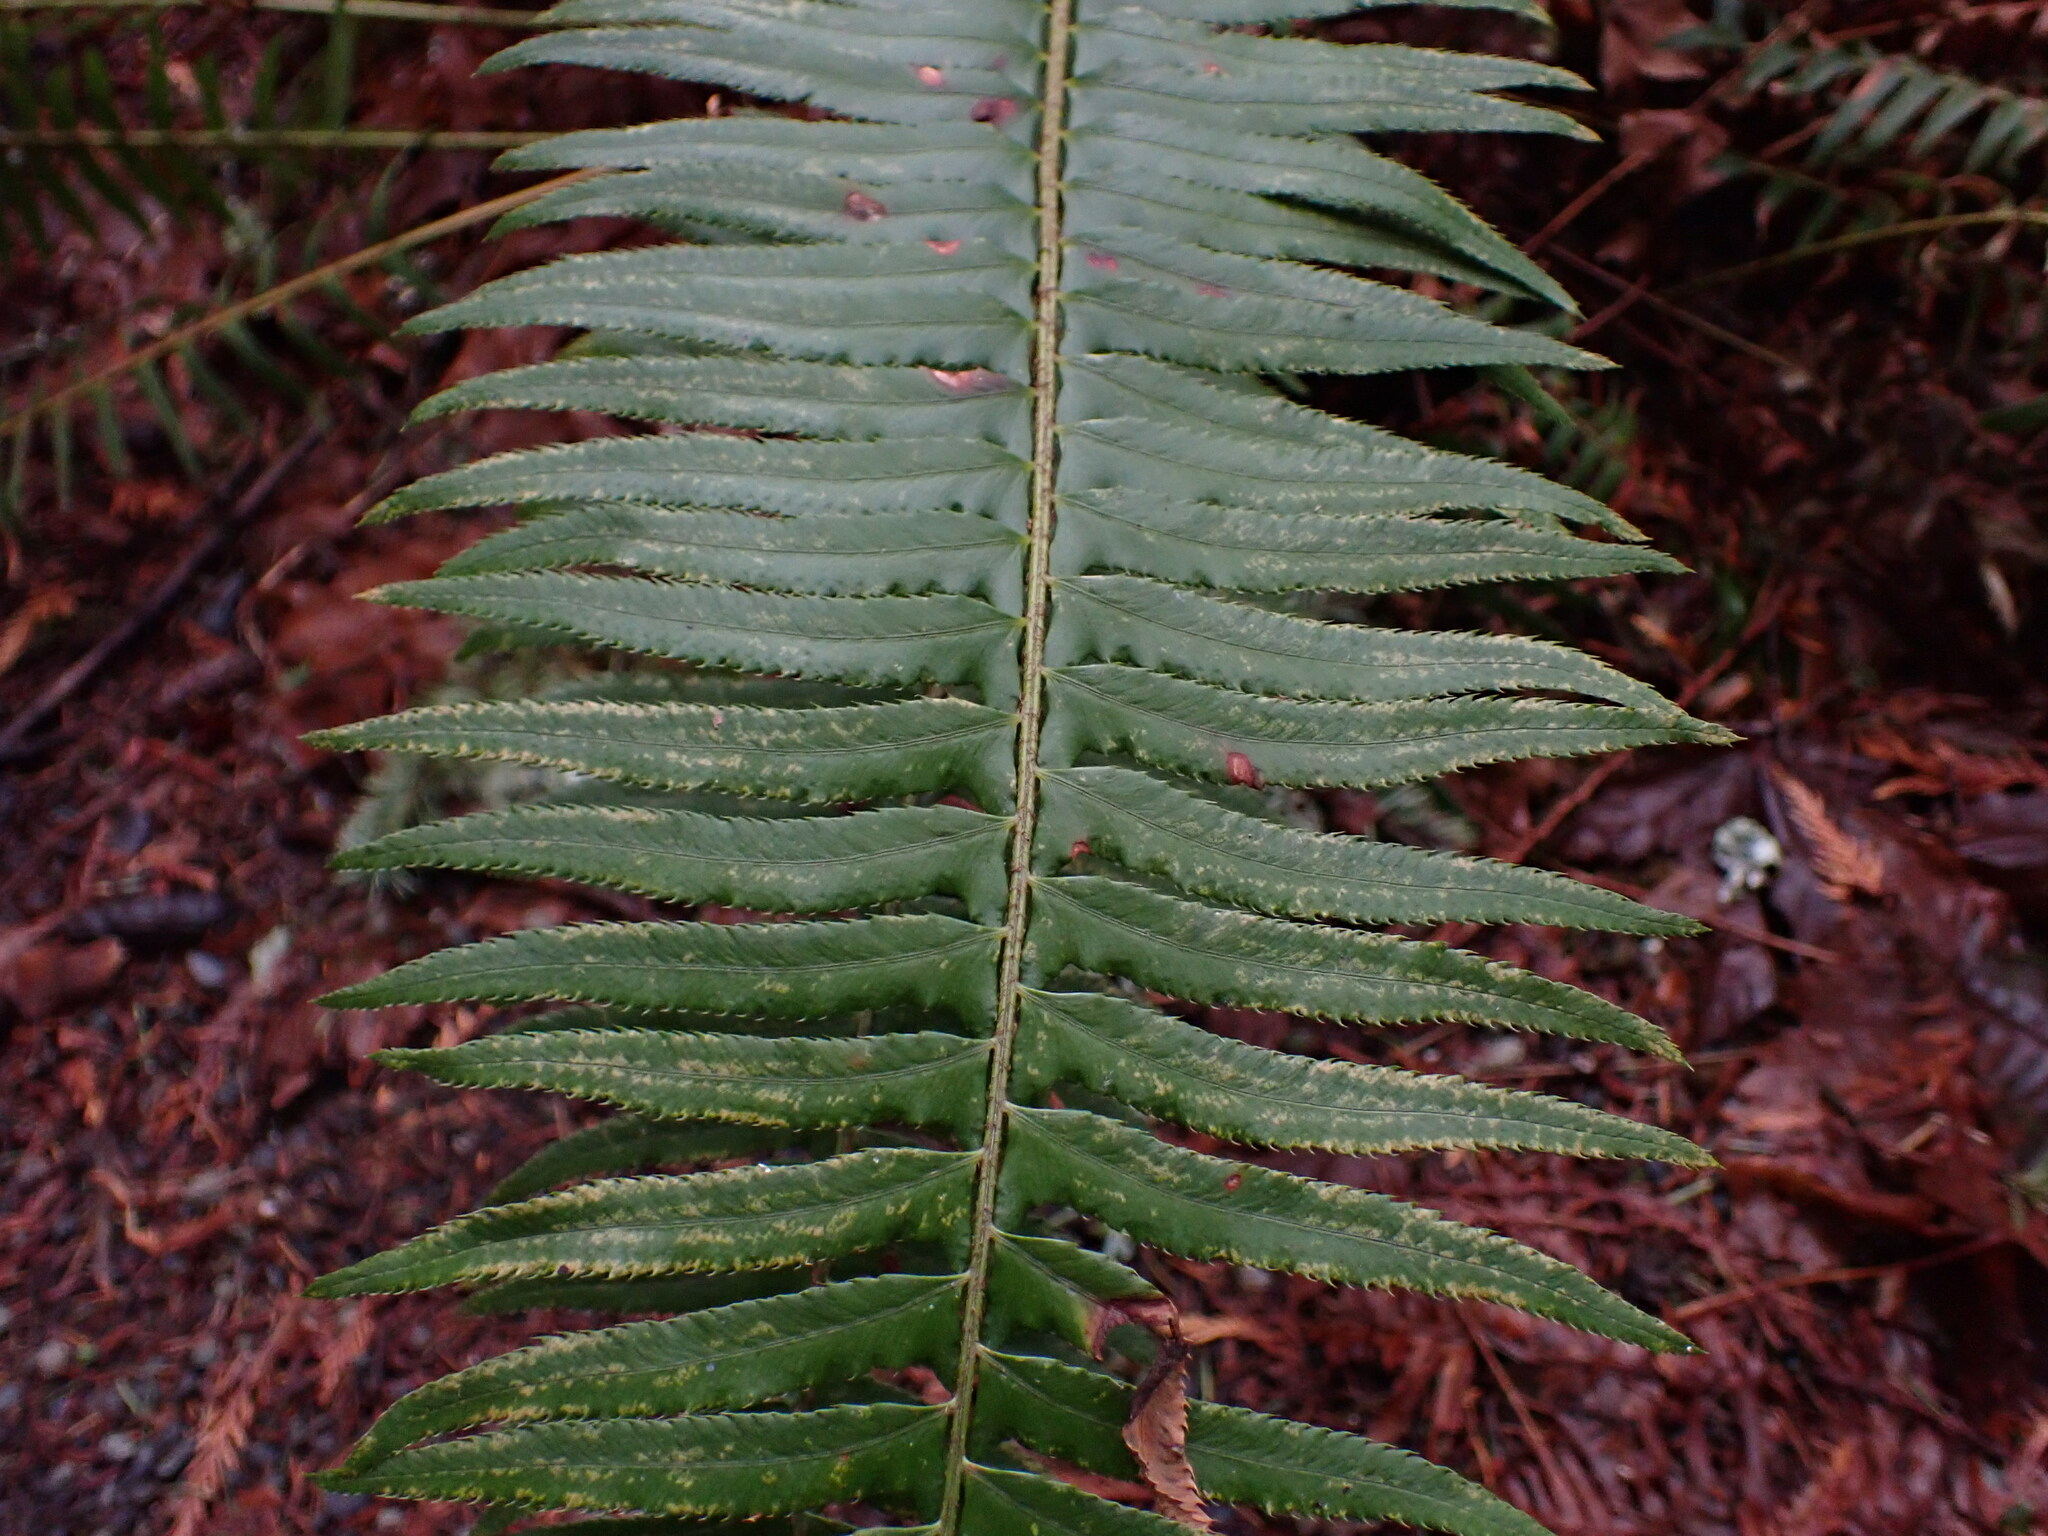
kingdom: Plantae
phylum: Tracheophyta
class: Polypodiopsida
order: Polypodiales
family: Dryopteridaceae
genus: Polystichum
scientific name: Polystichum munitum
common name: Western sword-fern
